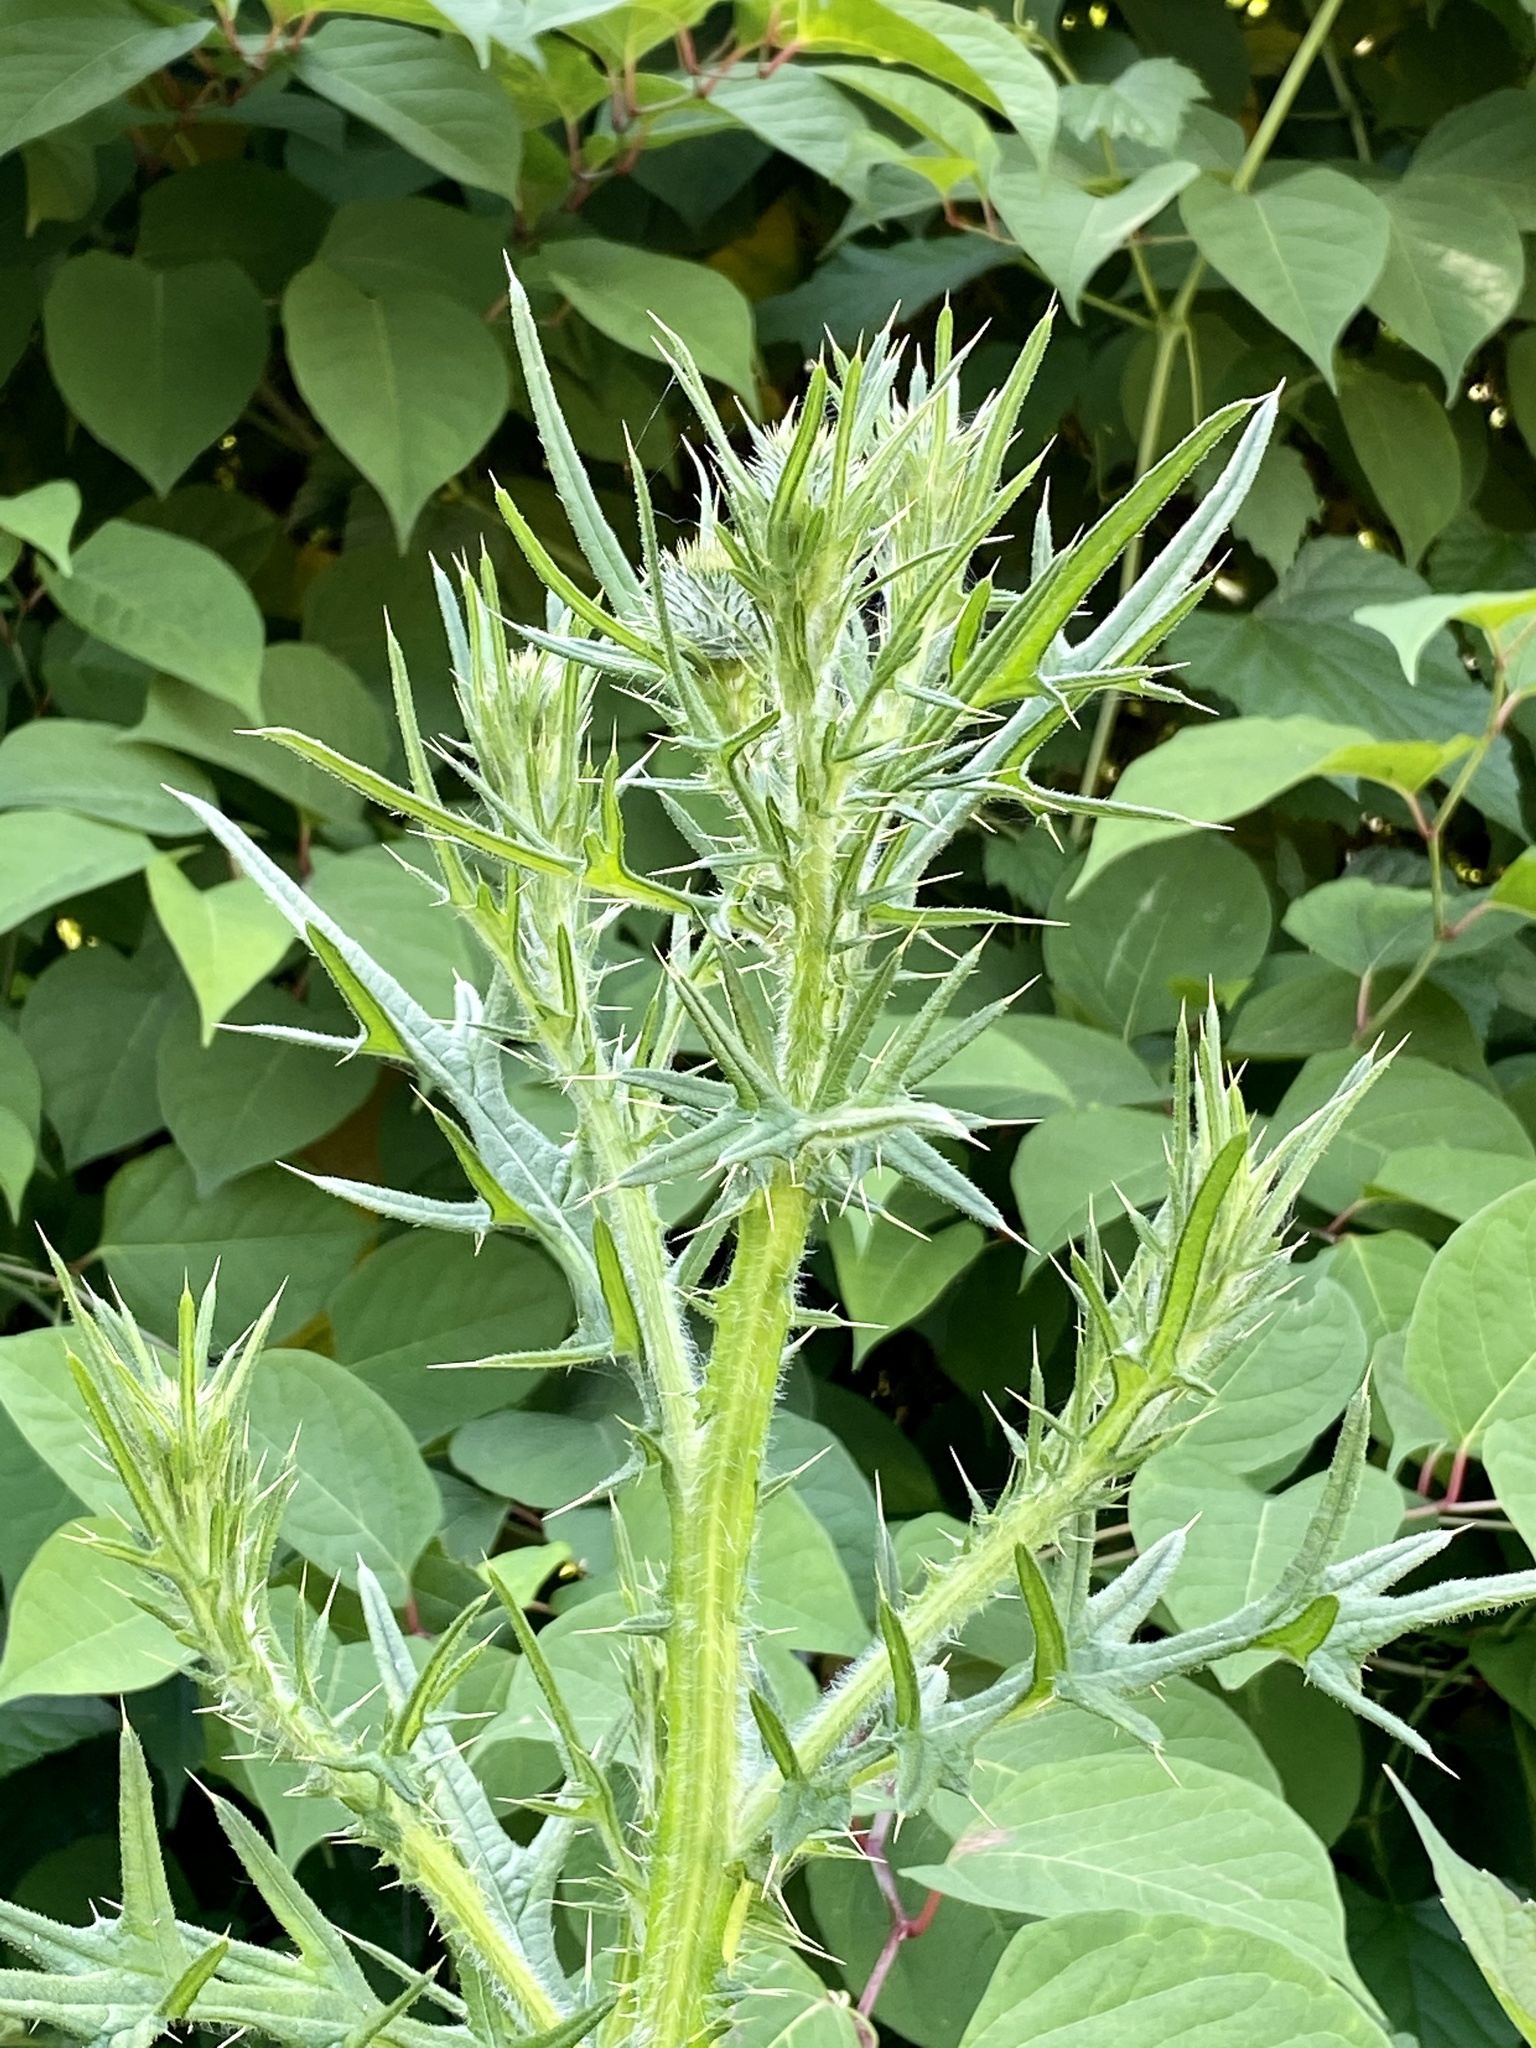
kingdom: Plantae
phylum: Tracheophyta
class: Magnoliopsida
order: Asterales
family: Asteraceae
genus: Cirsium
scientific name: Cirsium vulgare
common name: Bull thistle
